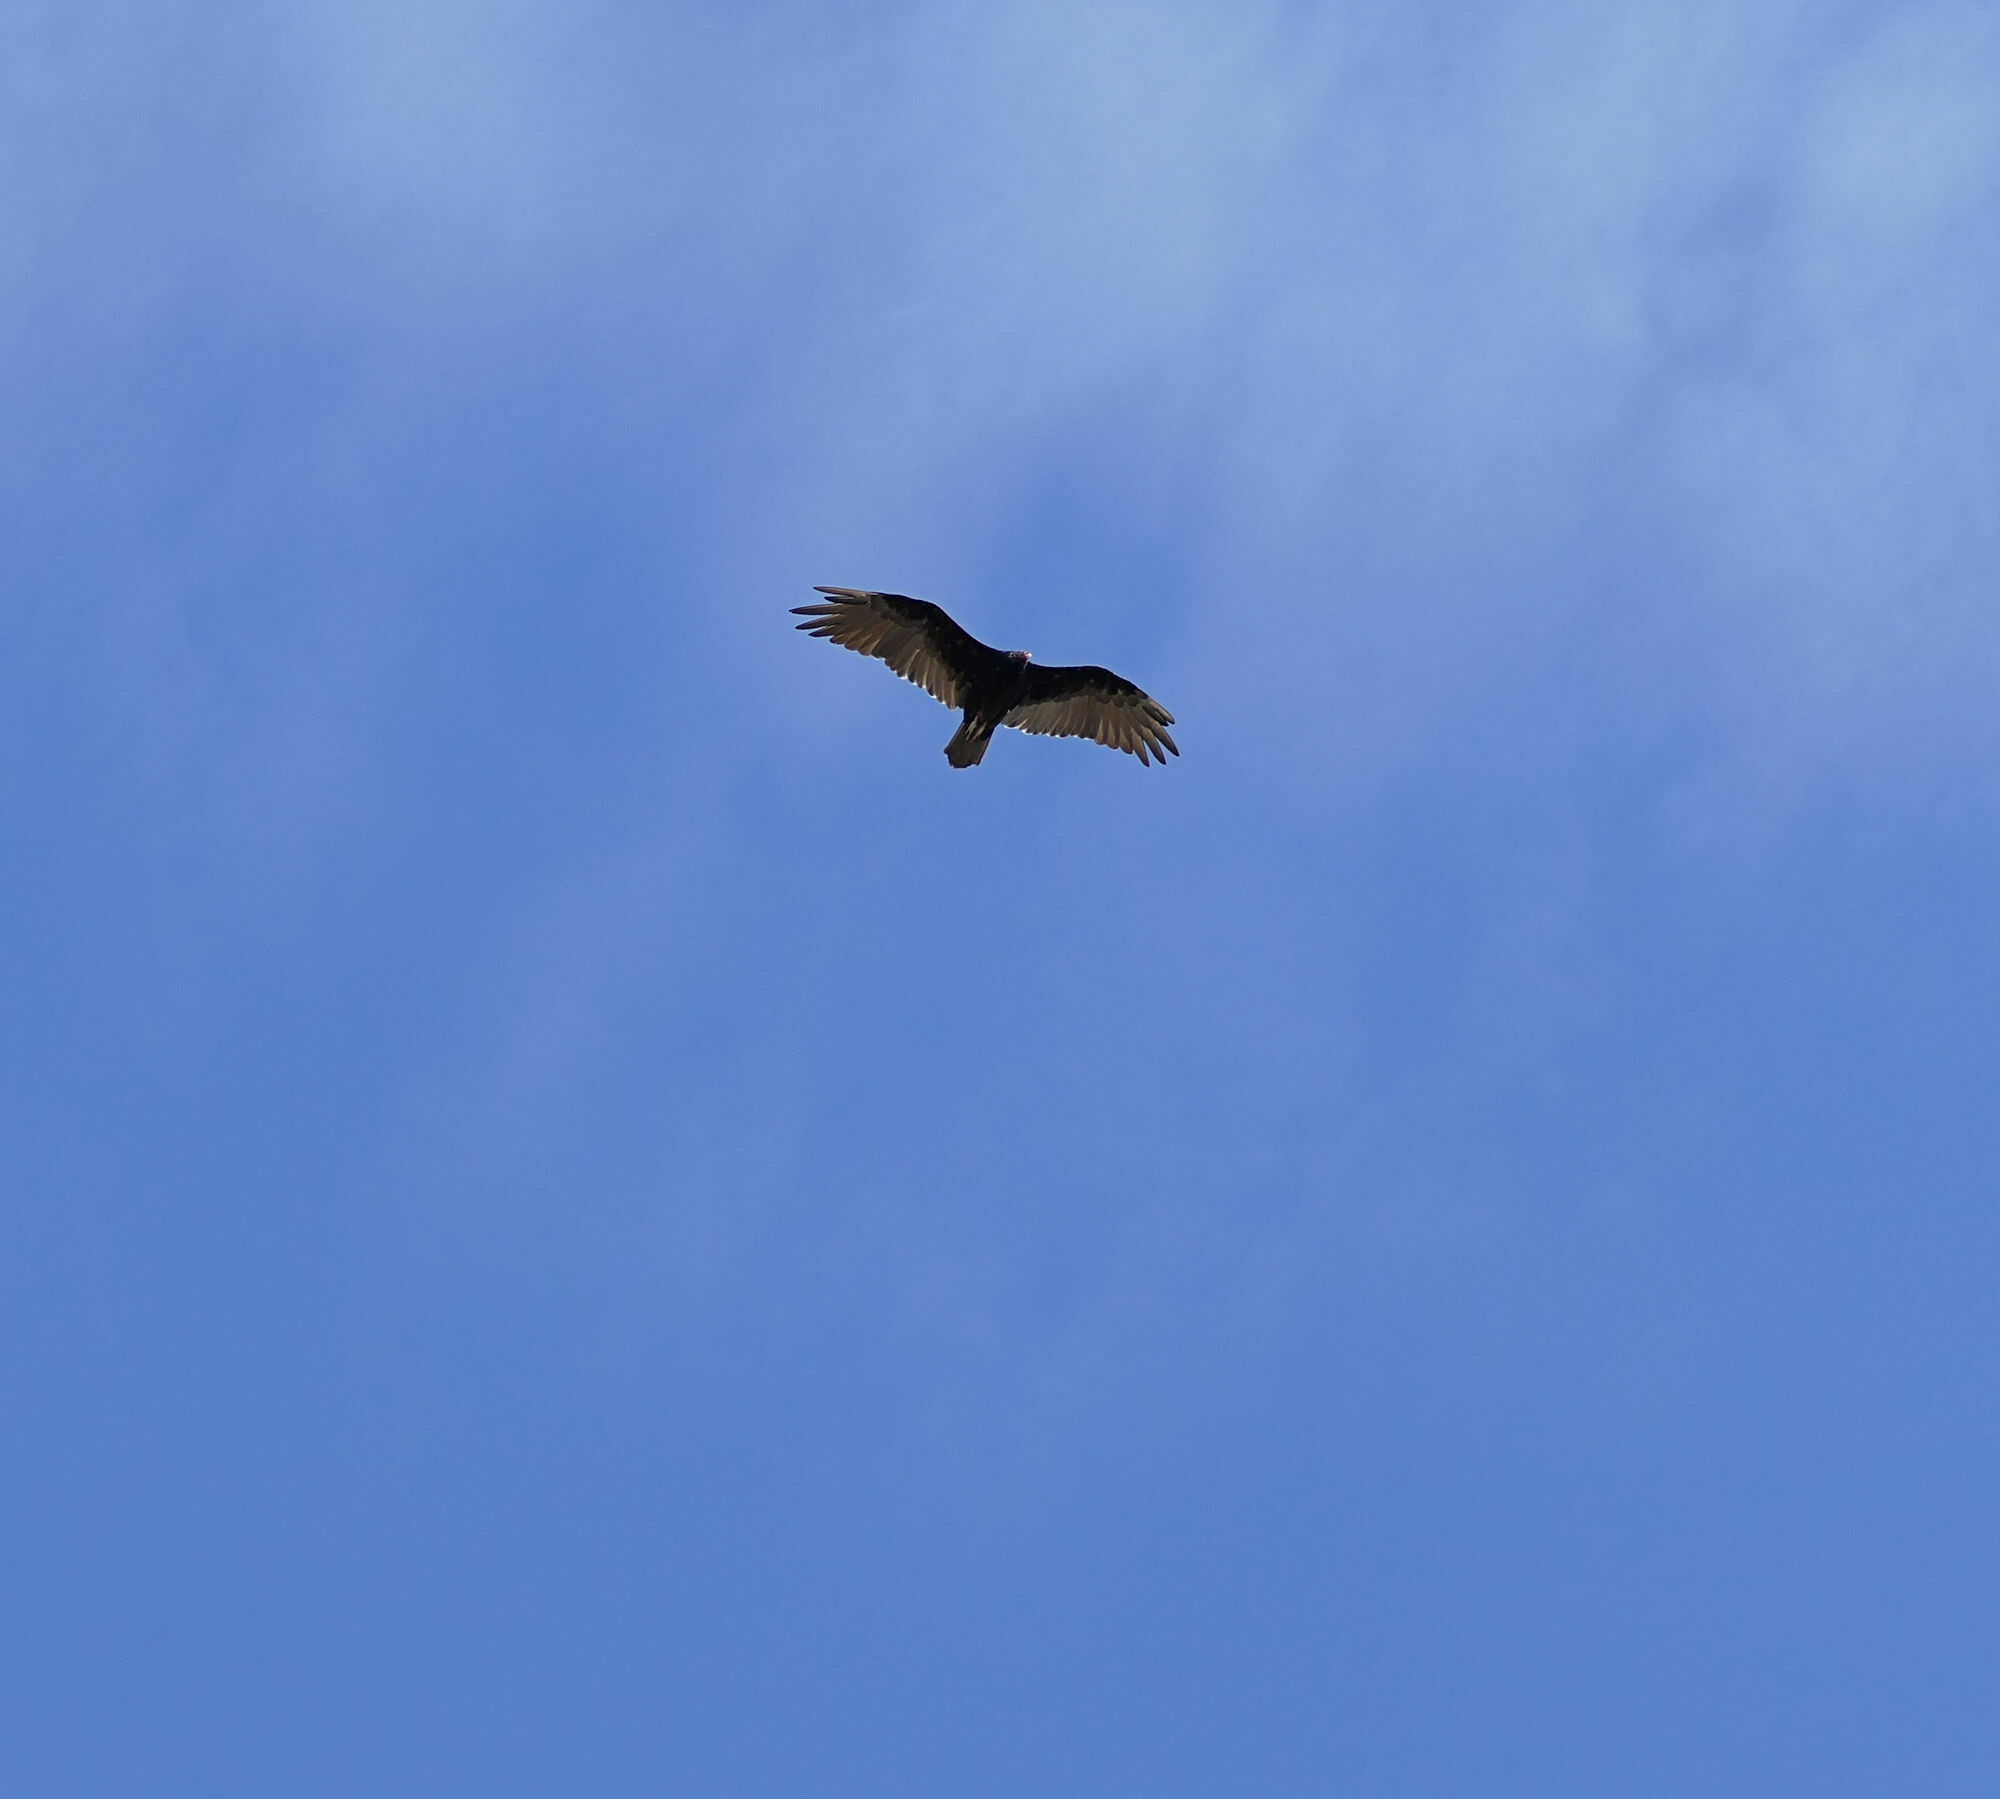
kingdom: Animalia
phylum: Chordata
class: Aves
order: Accipitriformes
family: Cathartidae
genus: Cathartes
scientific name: Cathartes aura
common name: Turkey vulture
